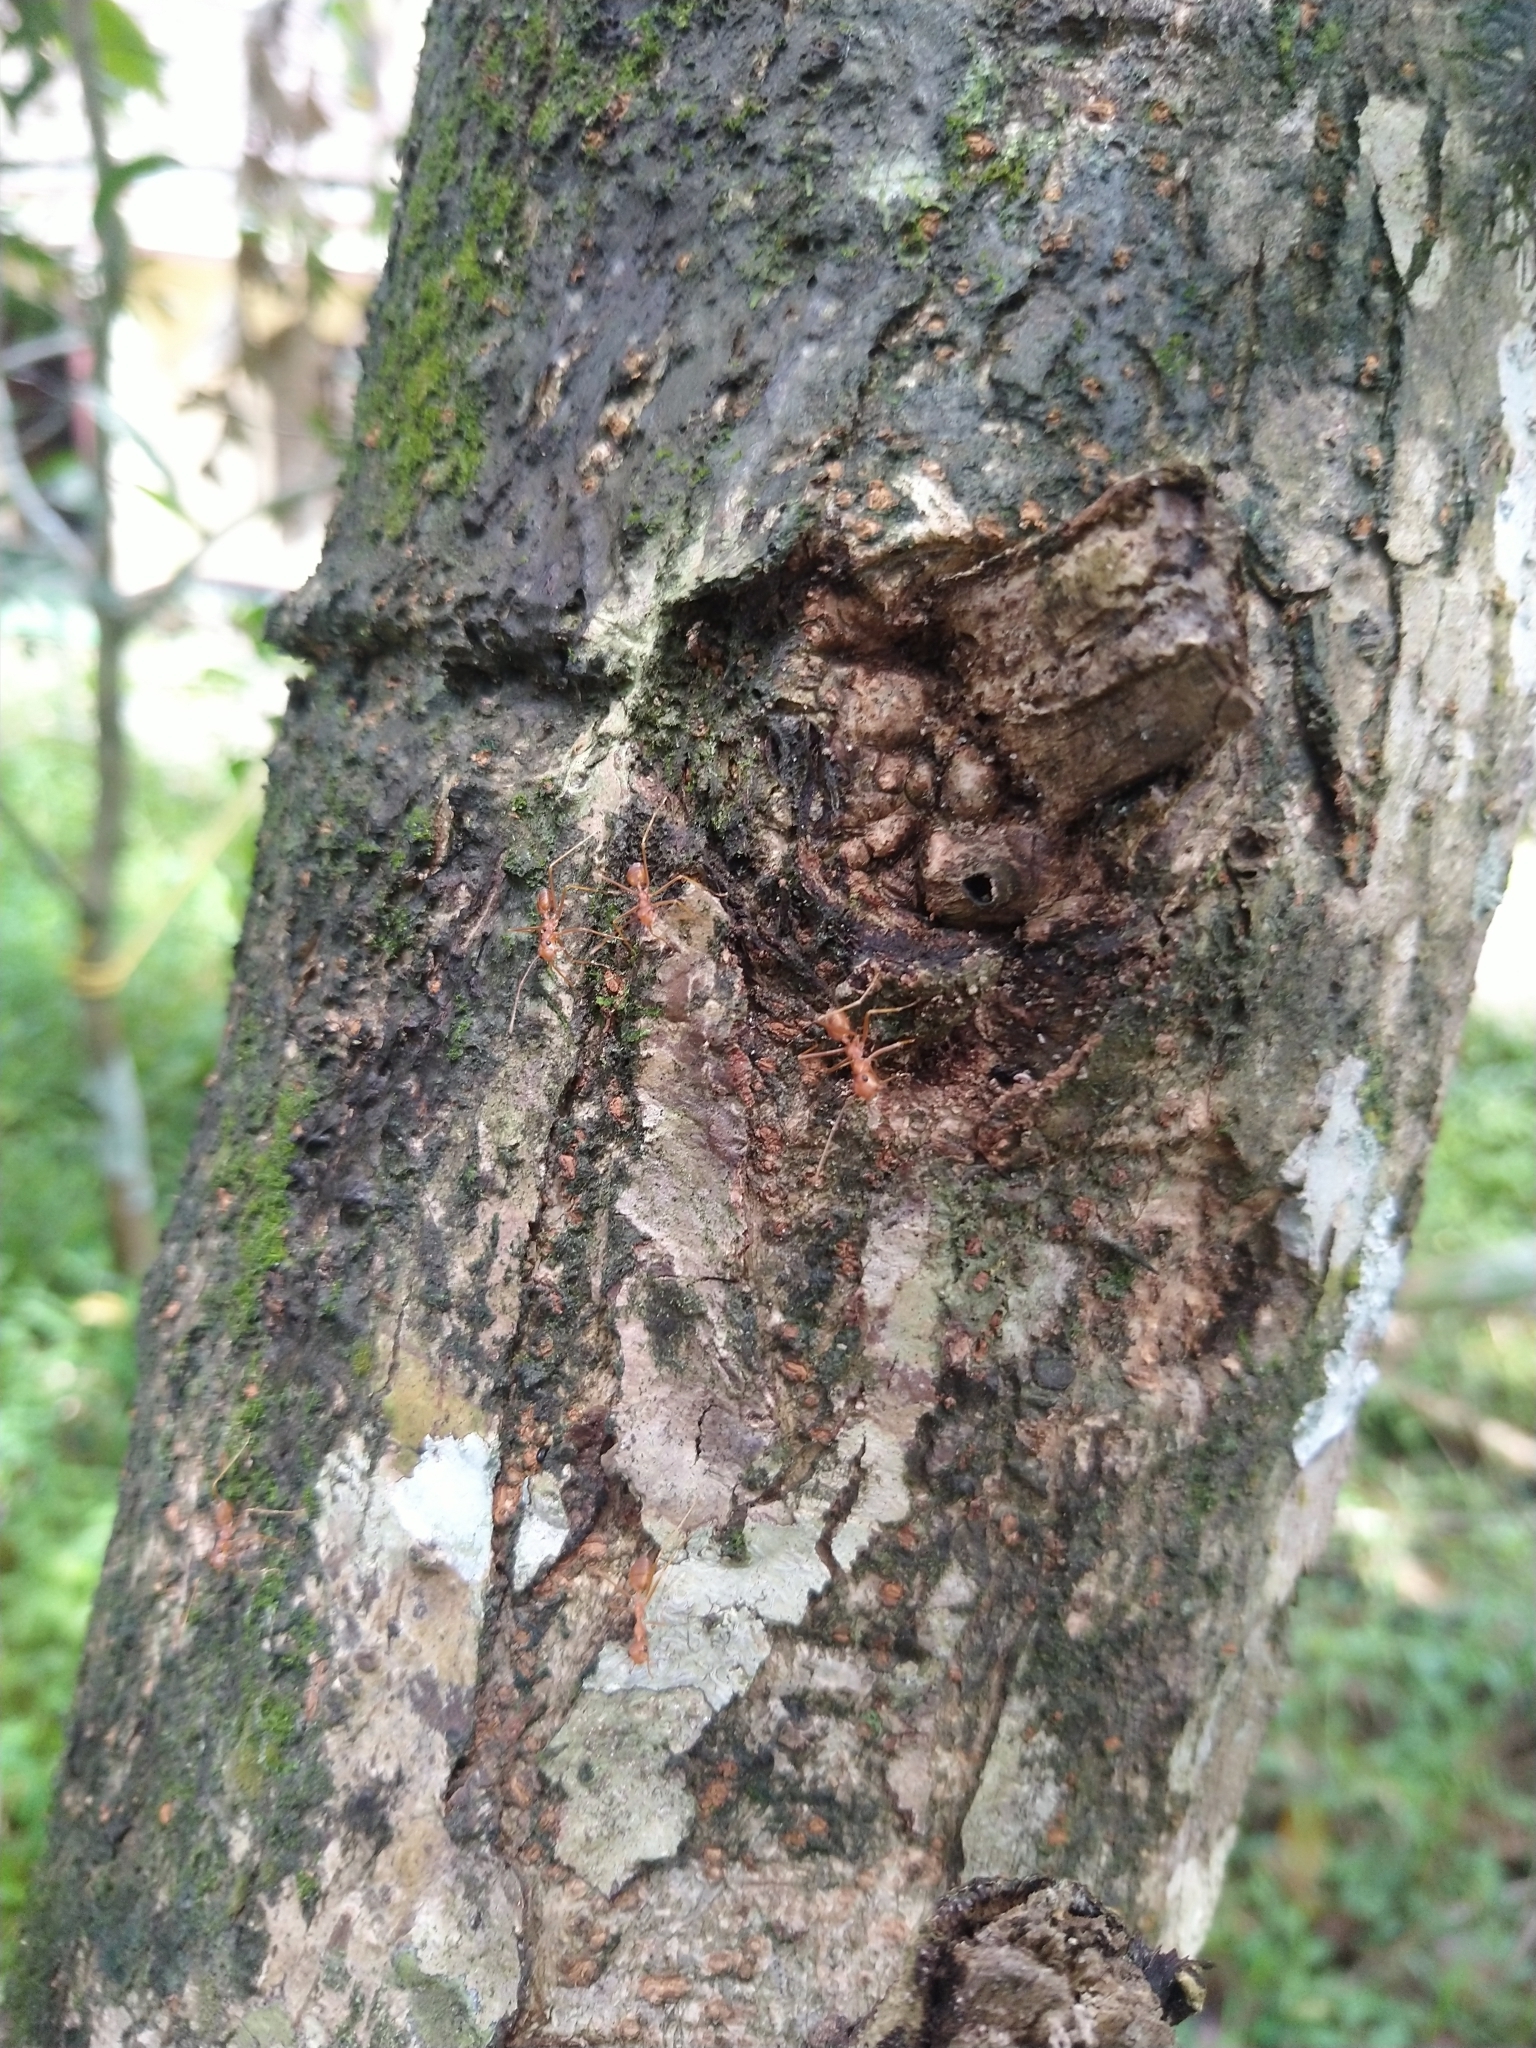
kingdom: Animalia
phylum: Arthropoda
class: Insecta
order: Hymenoptera
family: Formicidae
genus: Oecophylla
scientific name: Oecophylla smaragdina
